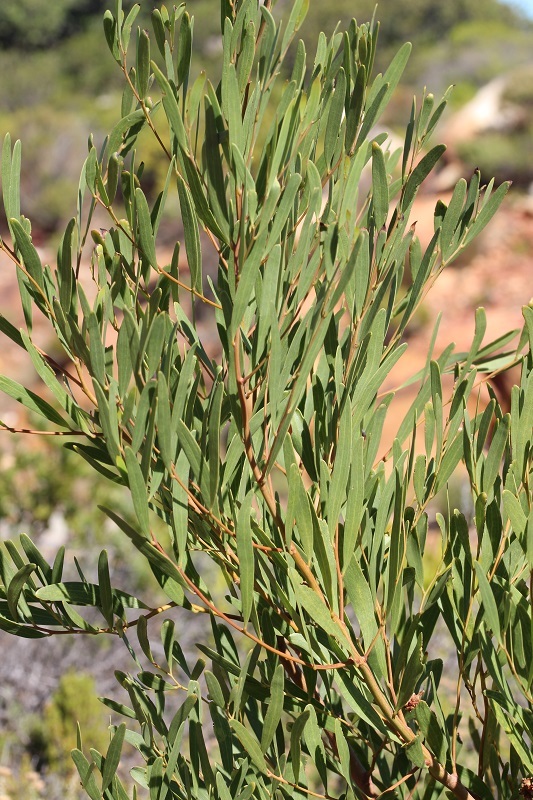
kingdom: Plantae
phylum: Tracheophyta
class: Magnoliopsida
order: Fabales
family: Fabaceae
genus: Acacia
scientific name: Acacia cyclops
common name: Coastal wattle
